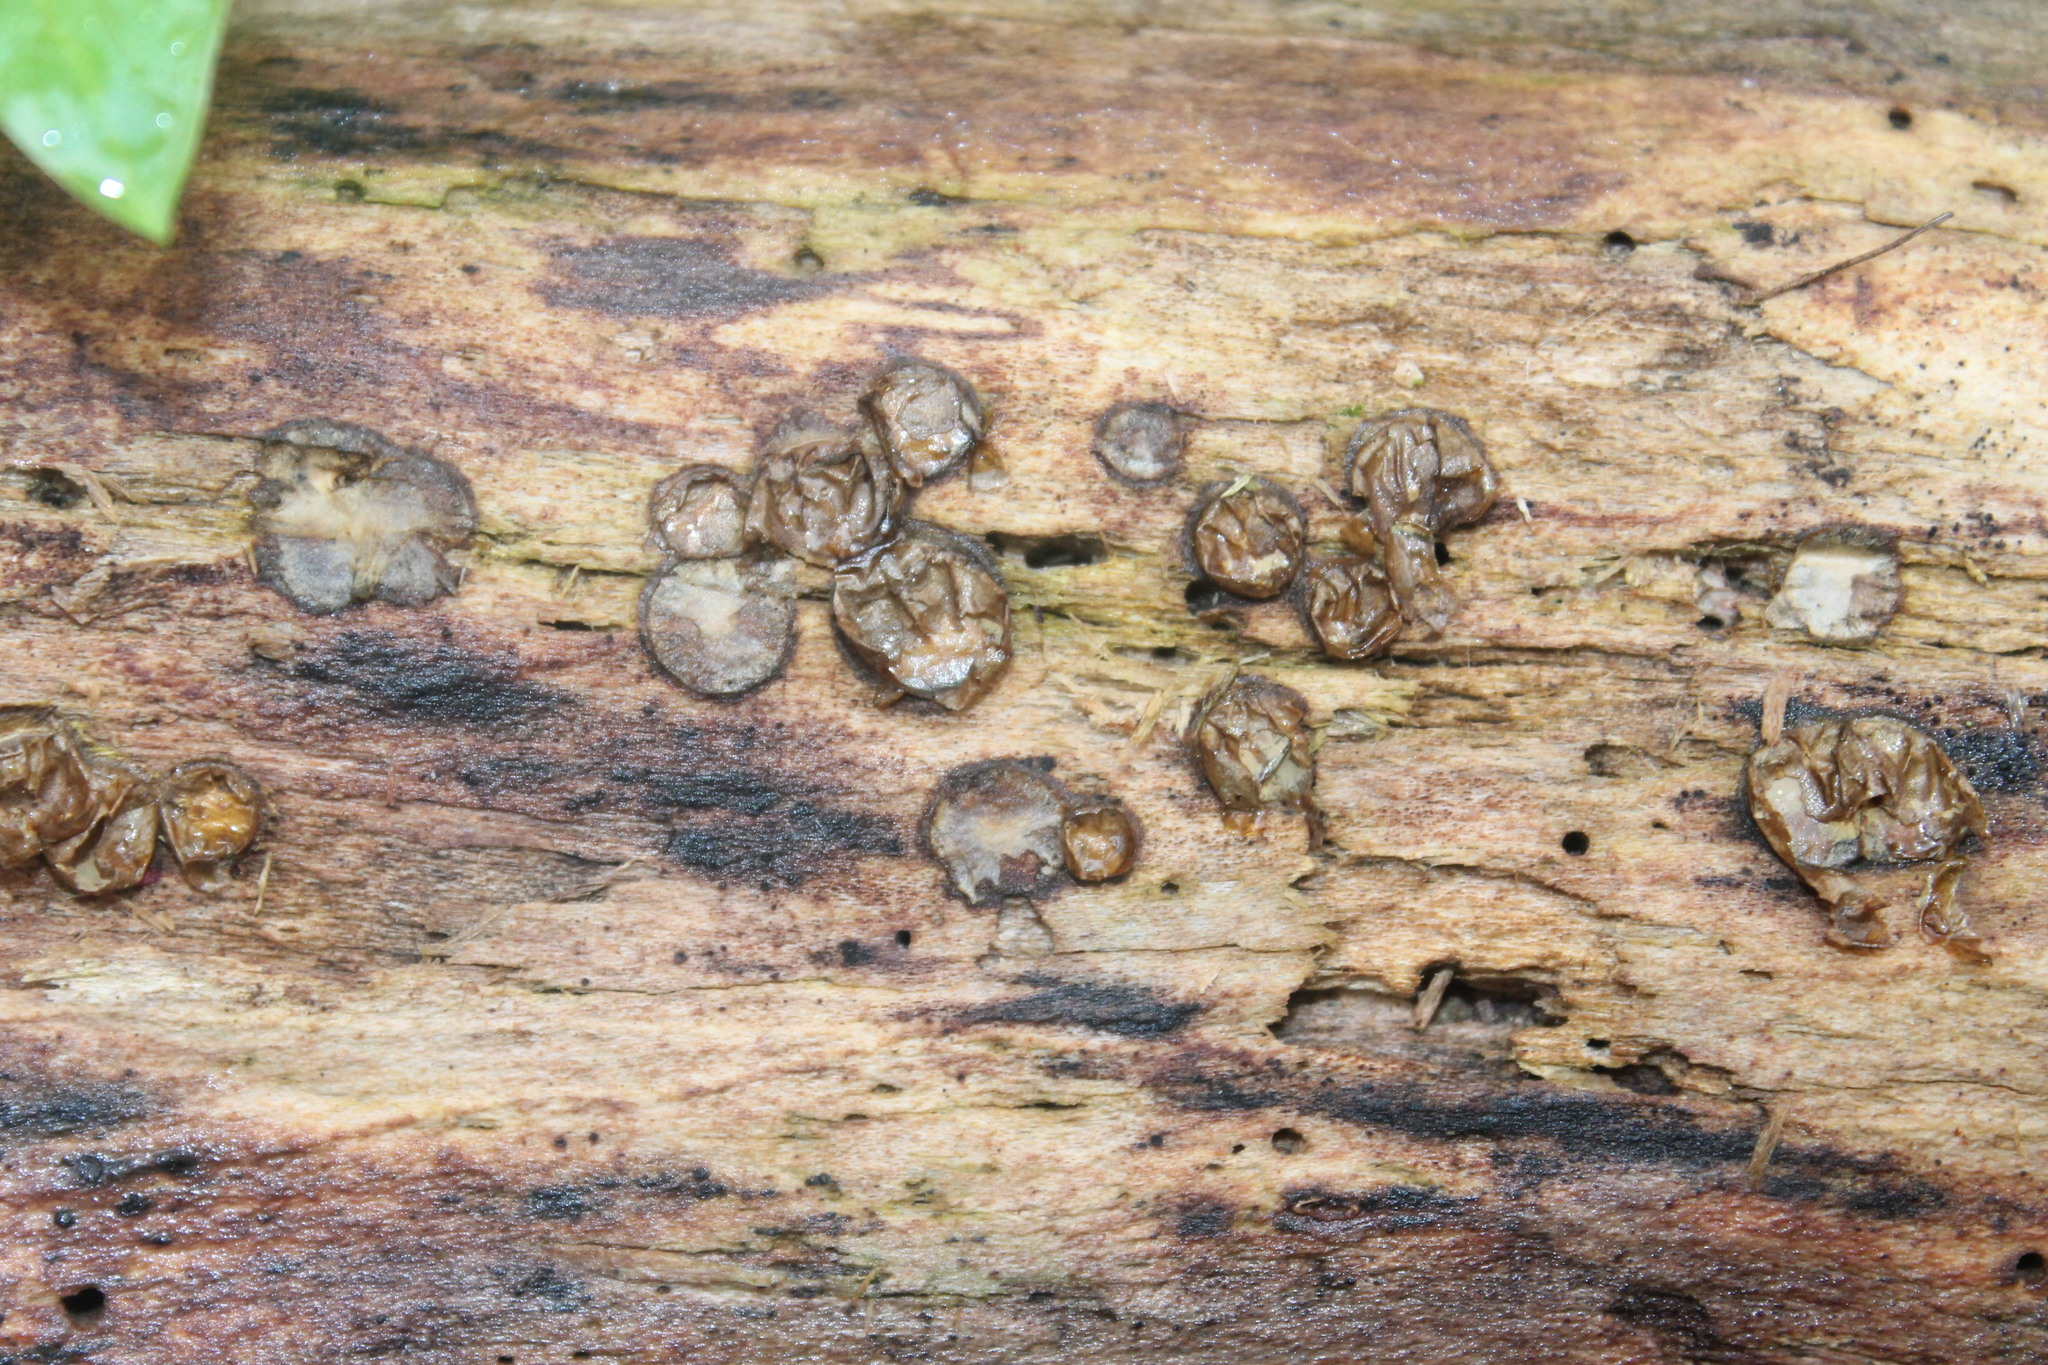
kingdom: Protozoa
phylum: Mycetozoa
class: Myxomycetes
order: Cribrariales
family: Tubiferaceae
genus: Lycogala
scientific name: Lycogala epidendrum
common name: Wolf's milk
